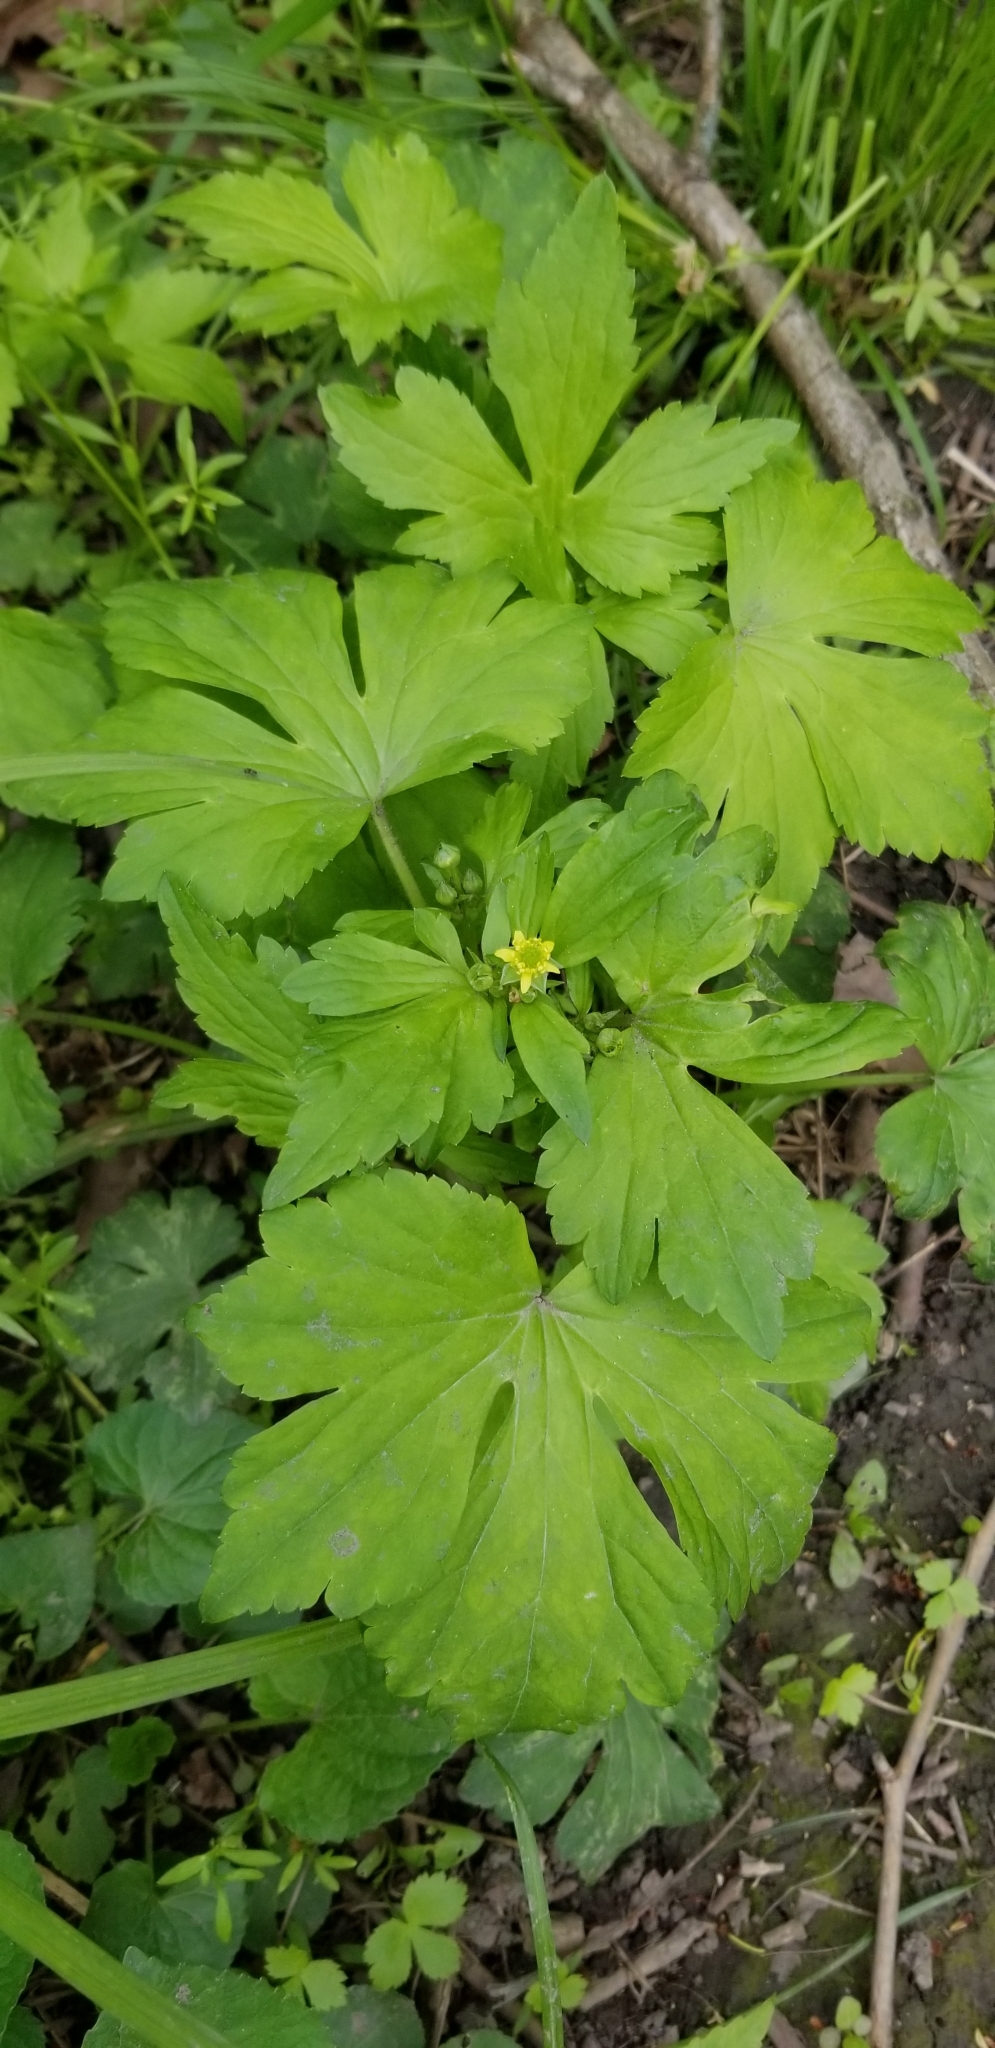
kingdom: Plantae
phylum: Tracheophyta
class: Magnoliopsida
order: Ranunculales
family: Ranunculaceae
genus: Ranunculus
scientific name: Ranunculus recurvatus
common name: Blisterwort
